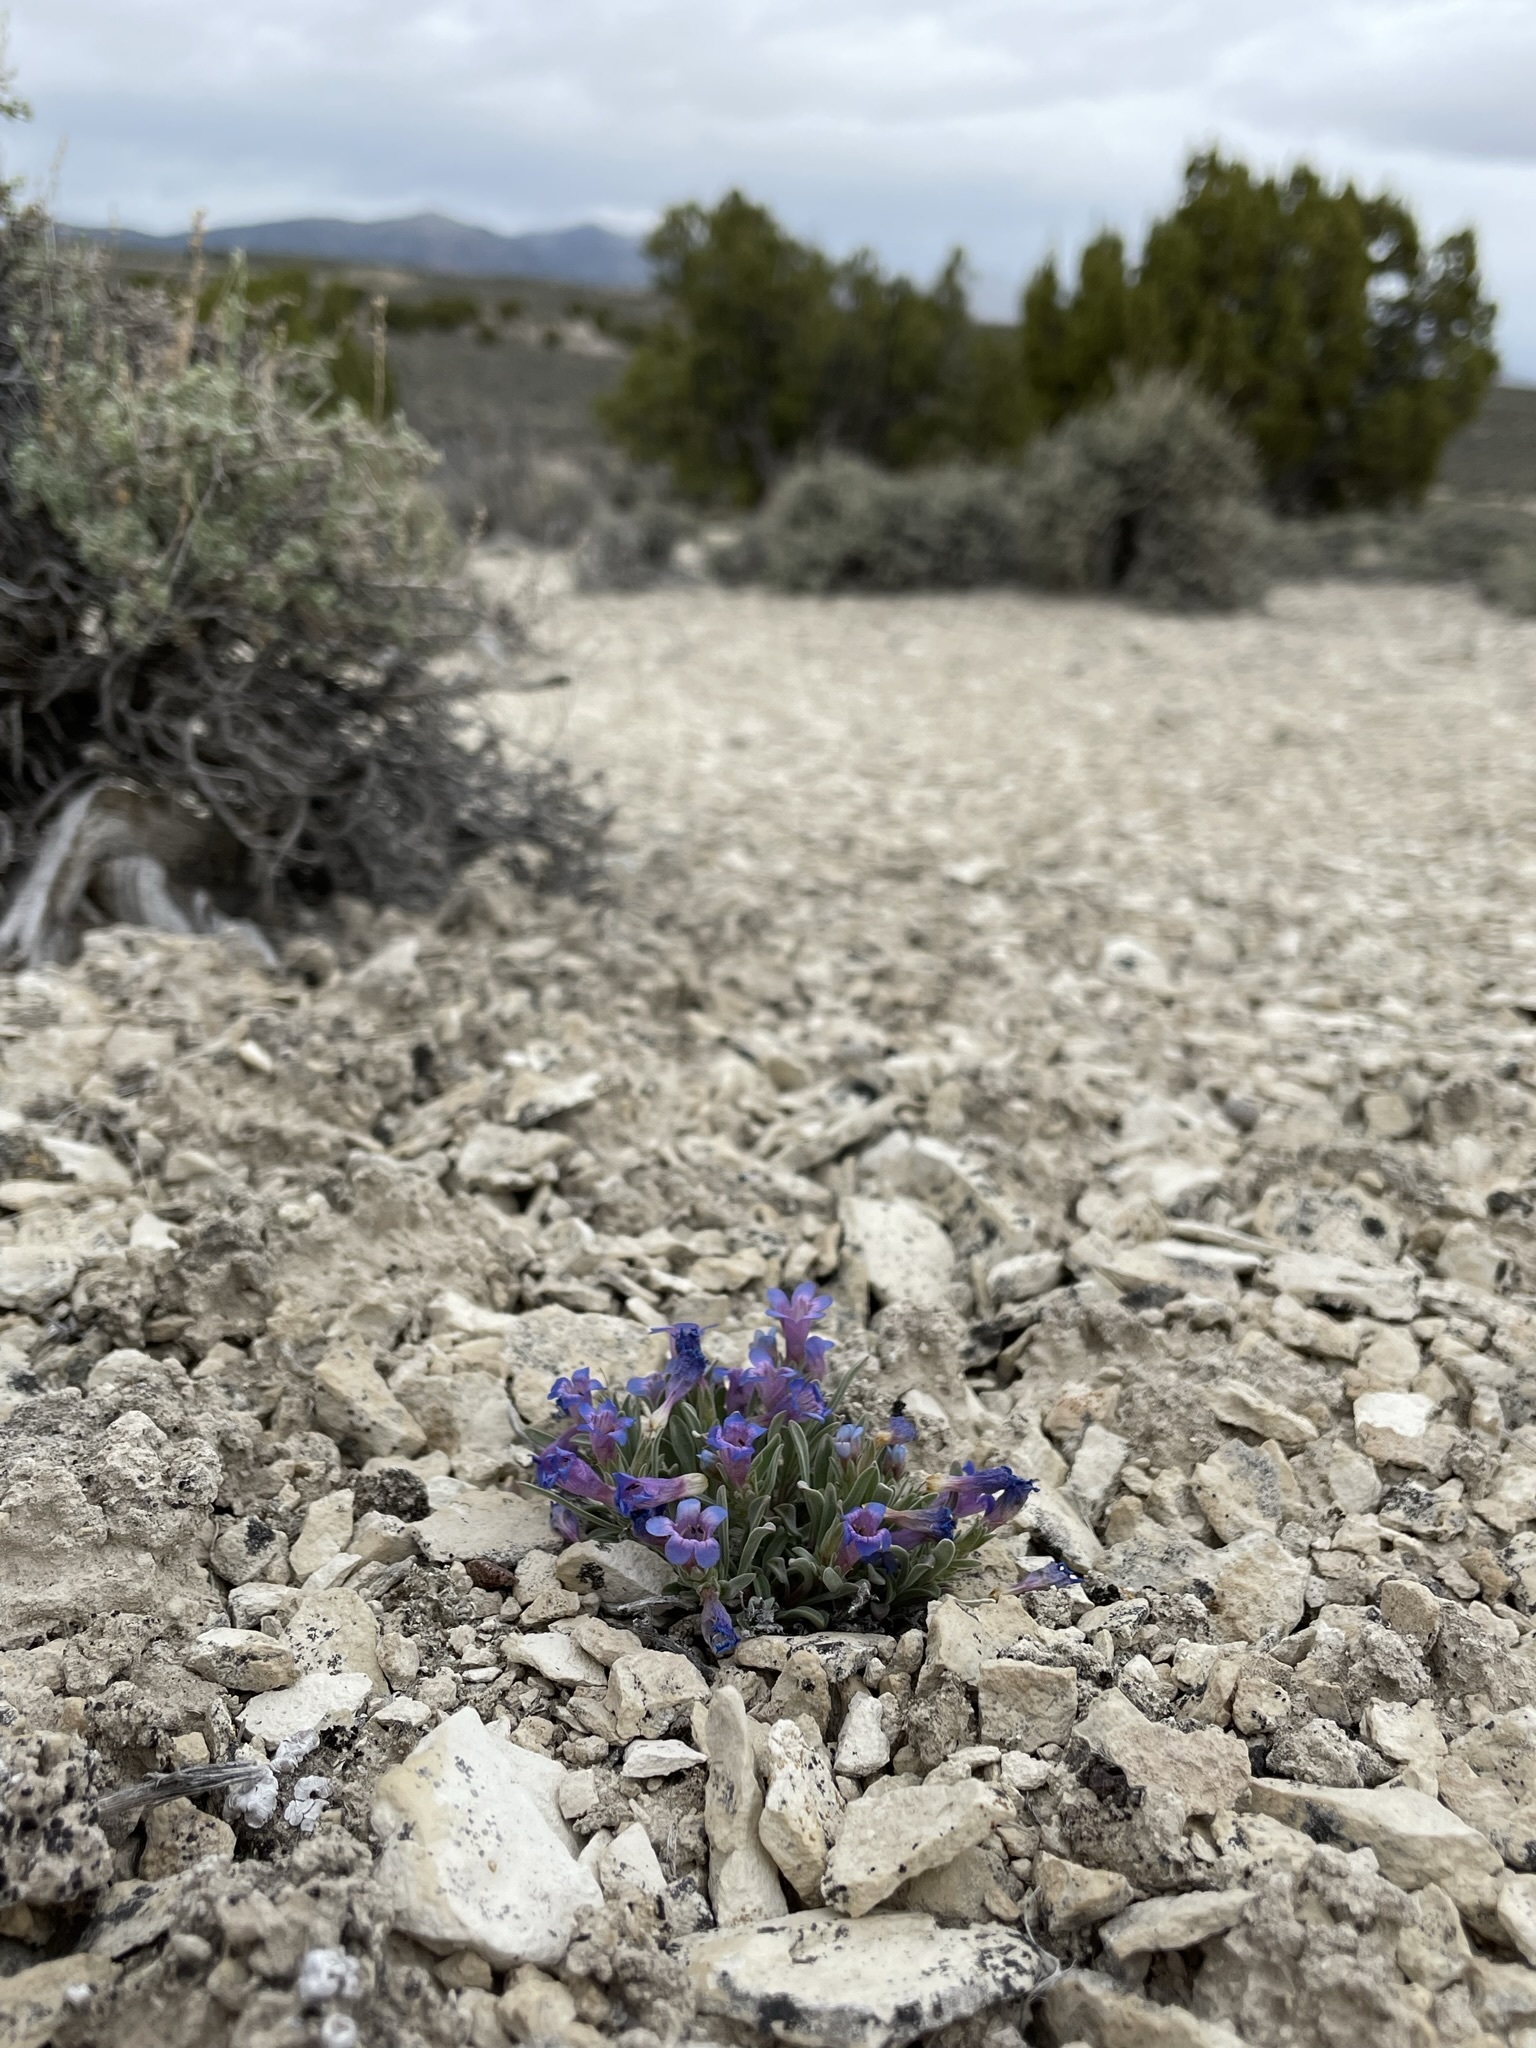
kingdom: Plantae
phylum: Tracheophyta
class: Magnoliopsida
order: Lamiales
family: Plantaginaceae
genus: Penstemon
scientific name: Penstemon dolius
